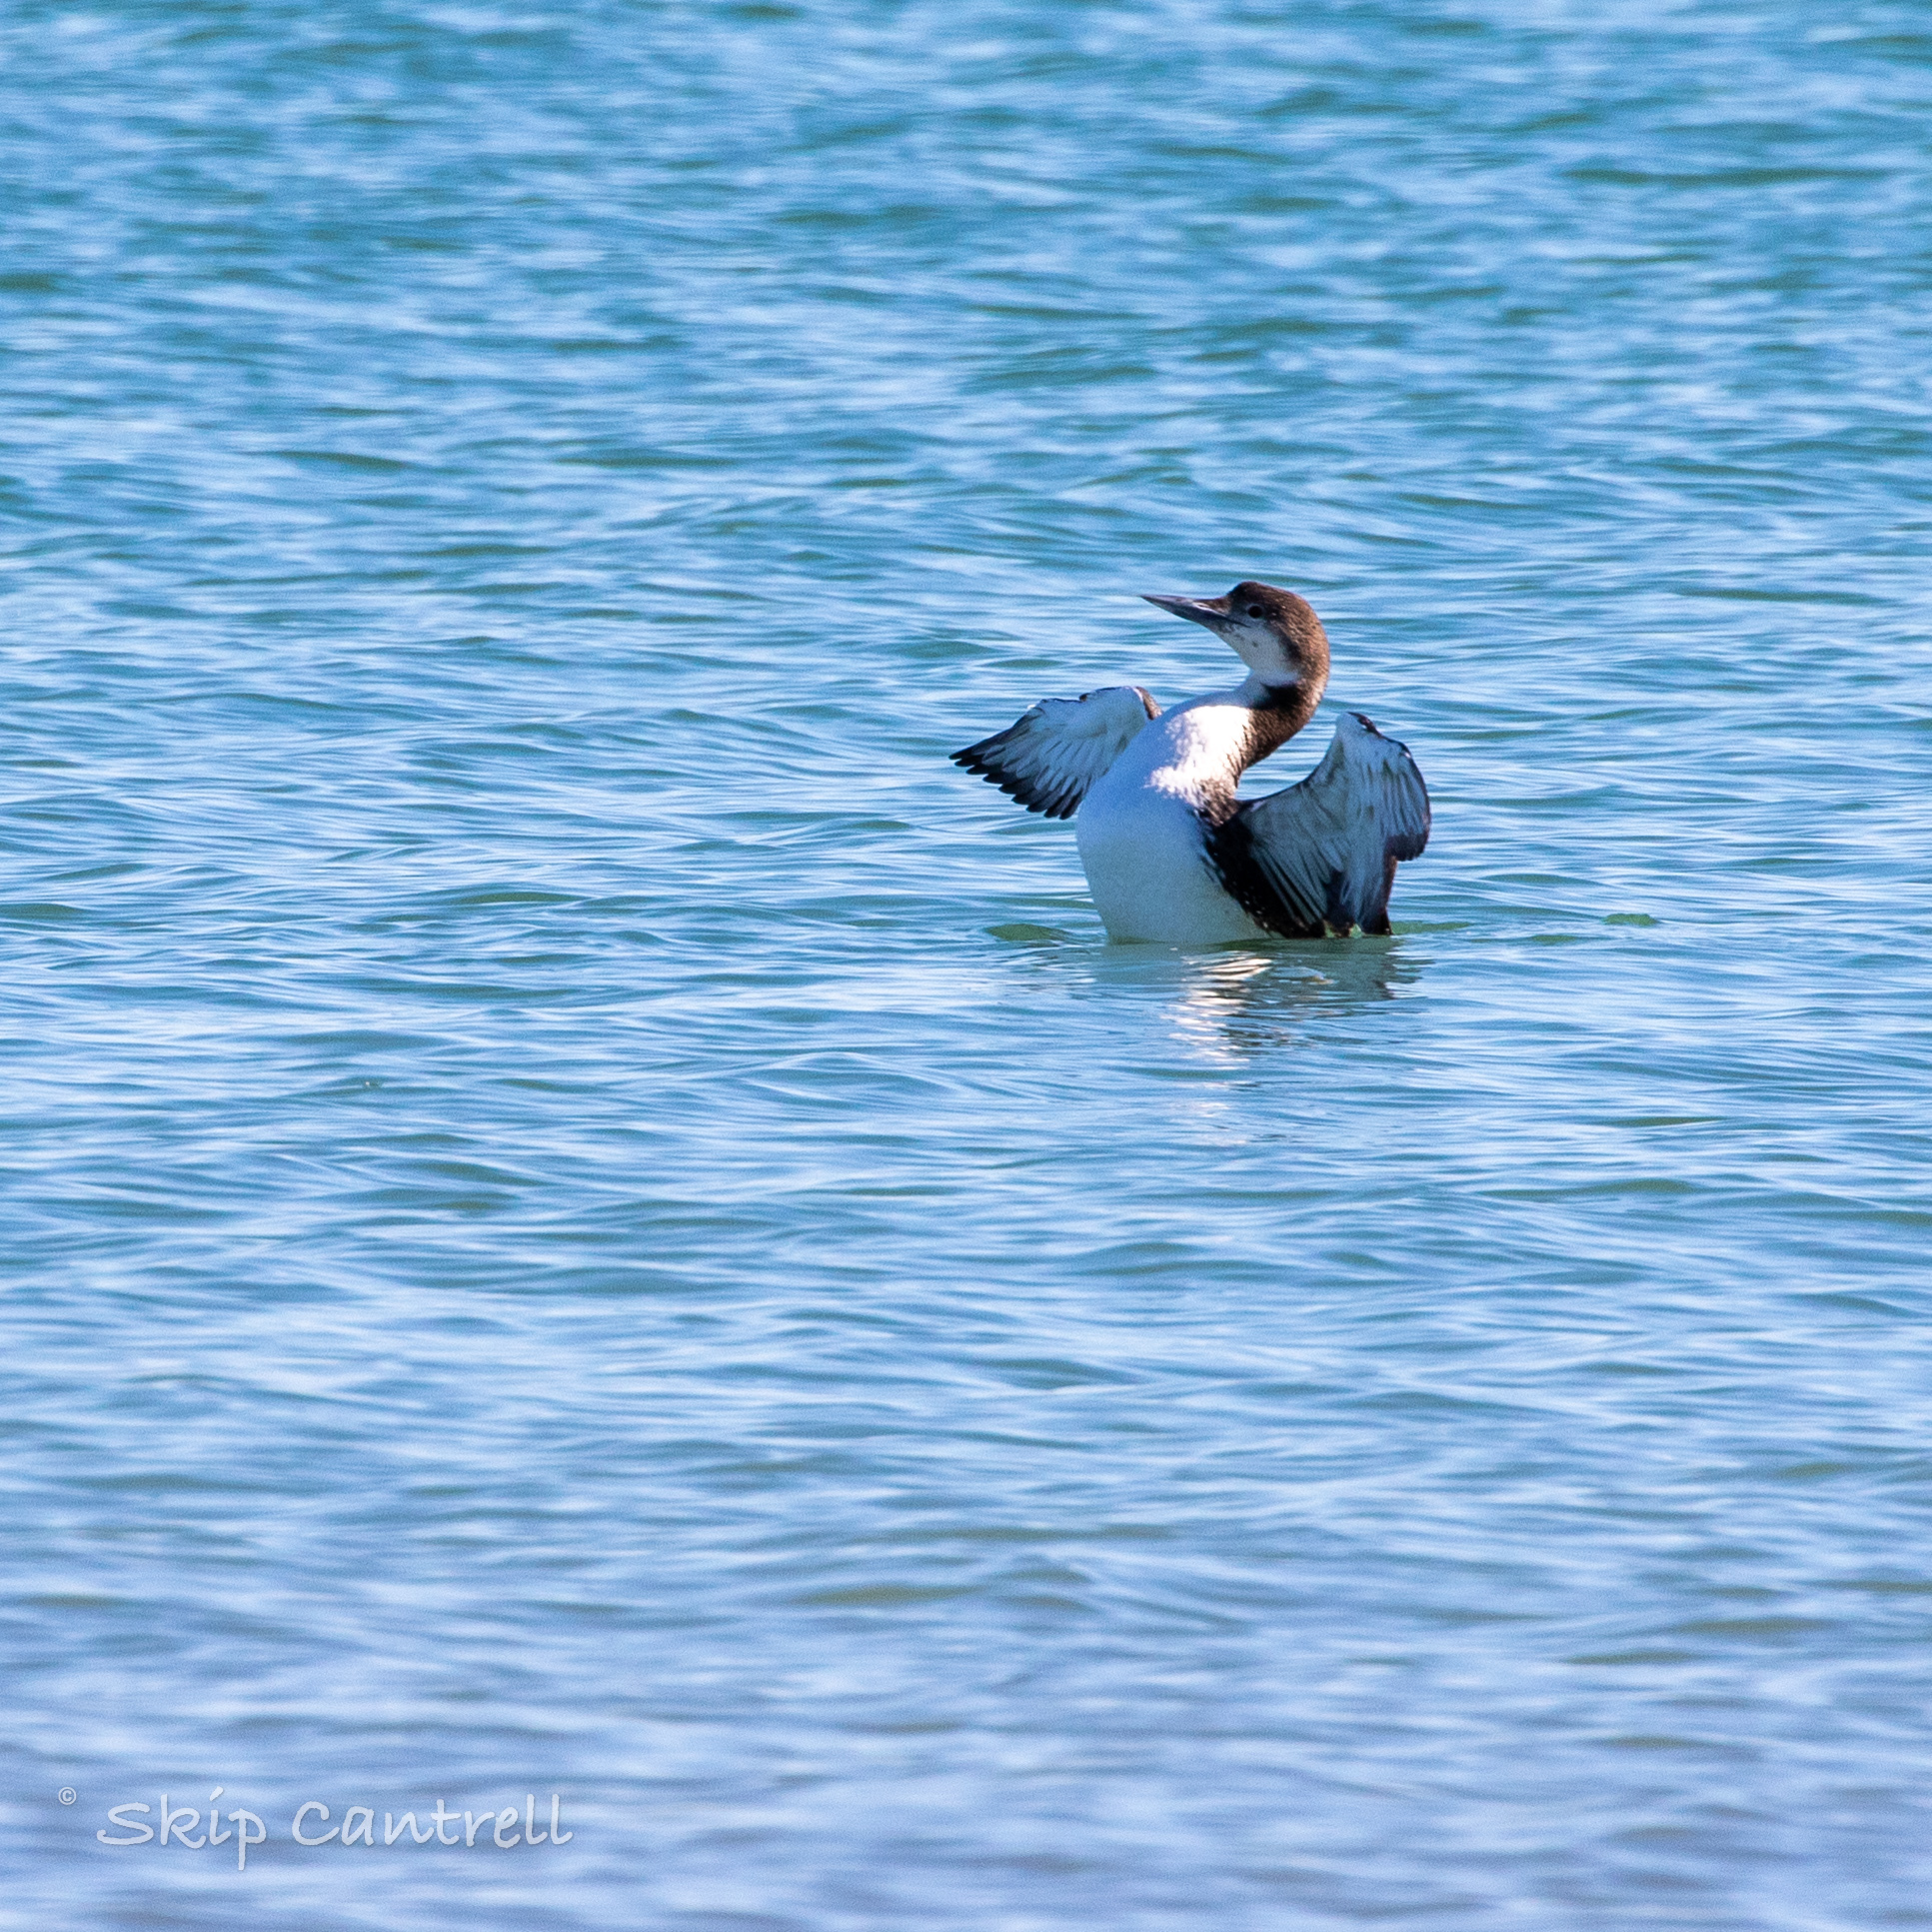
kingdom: Animalia
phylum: Chordata
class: Aves
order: Gaviiformes
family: Gaviidae
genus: Gavia
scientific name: Gavia immer
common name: Common loon
